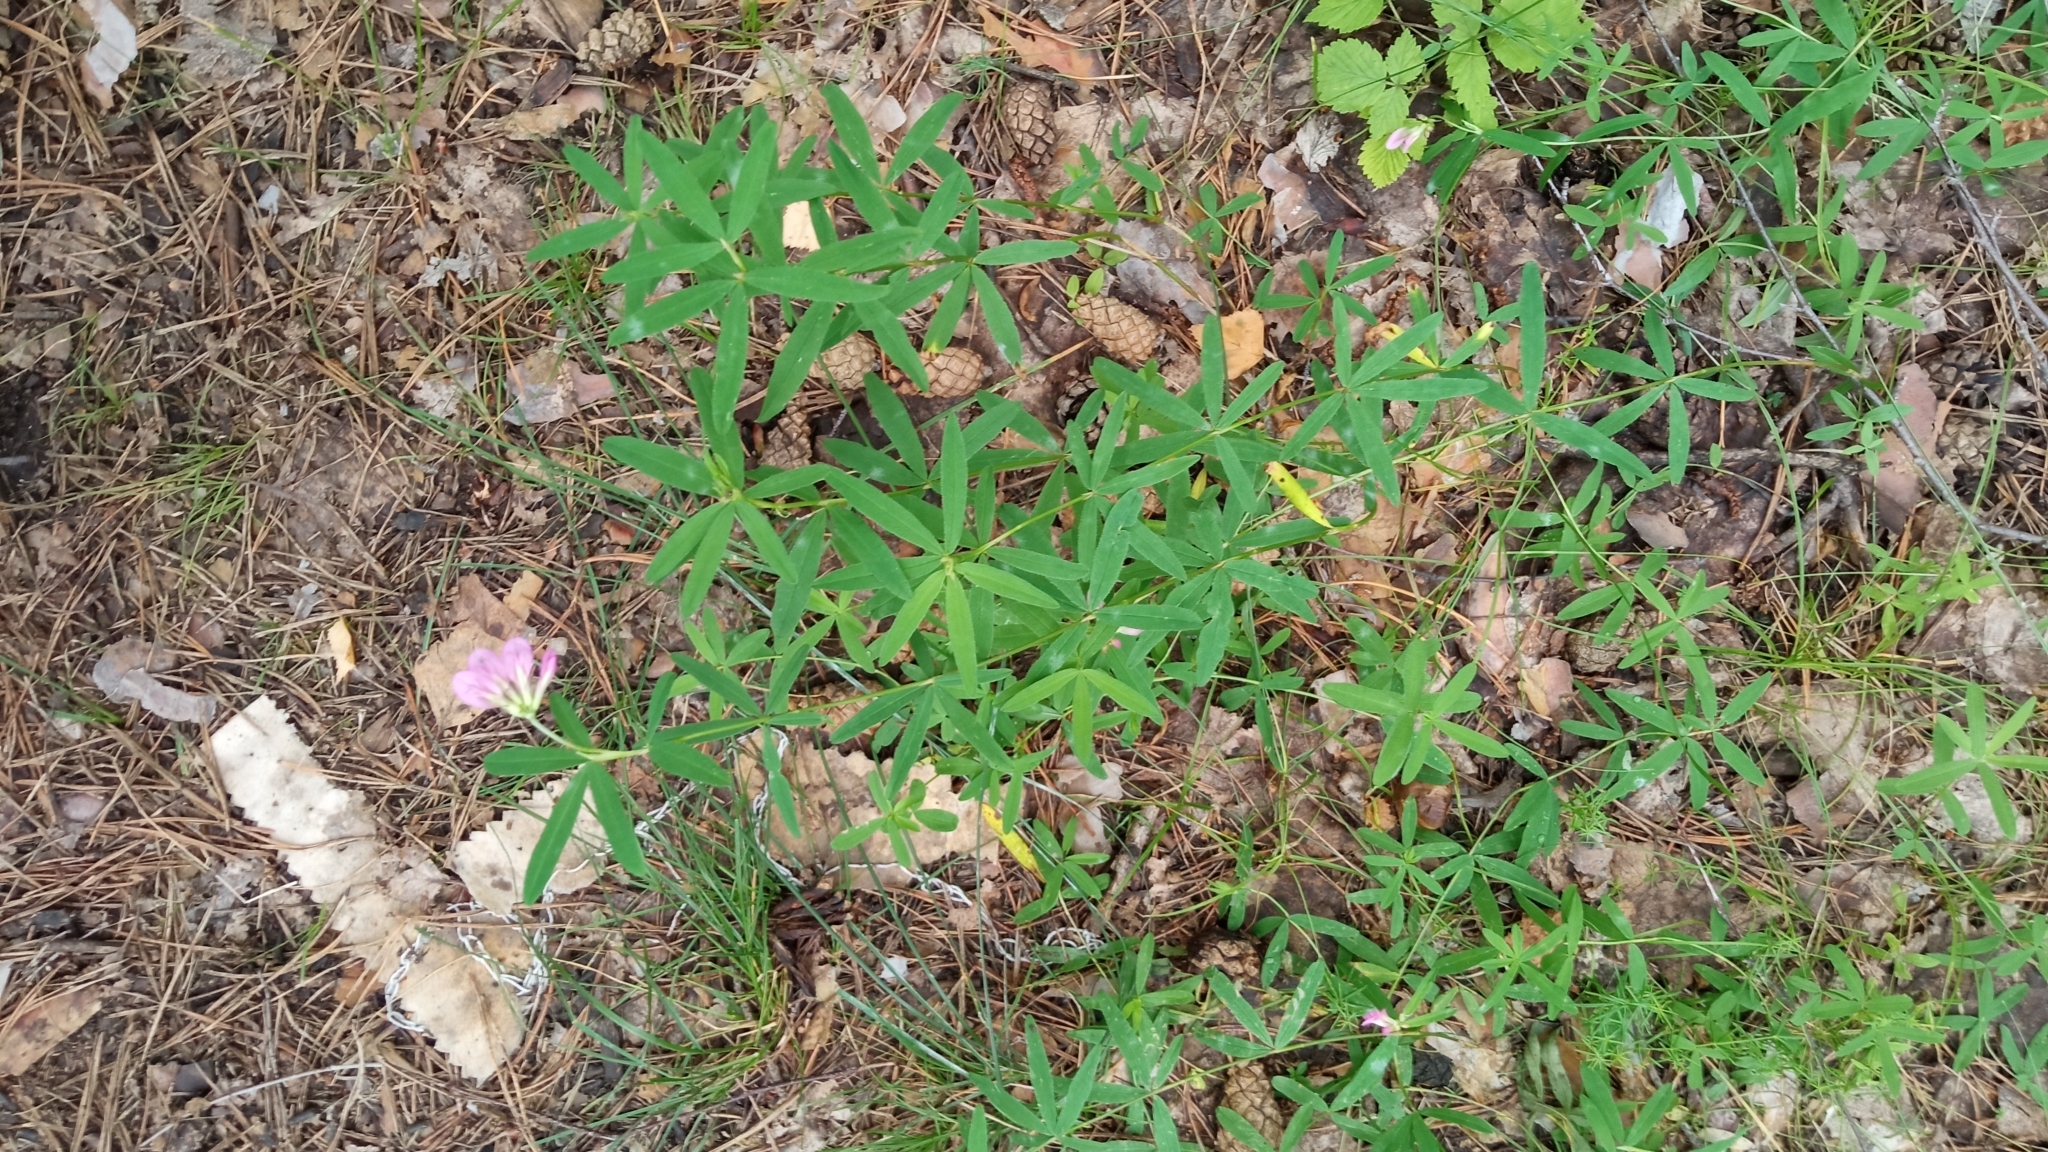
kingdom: Plantae
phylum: Tracheophyta
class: Magnoliopsida
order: Fabales
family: Fabaceae
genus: Trifolium
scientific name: Trifolium lupinaster
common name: Lupine clover
